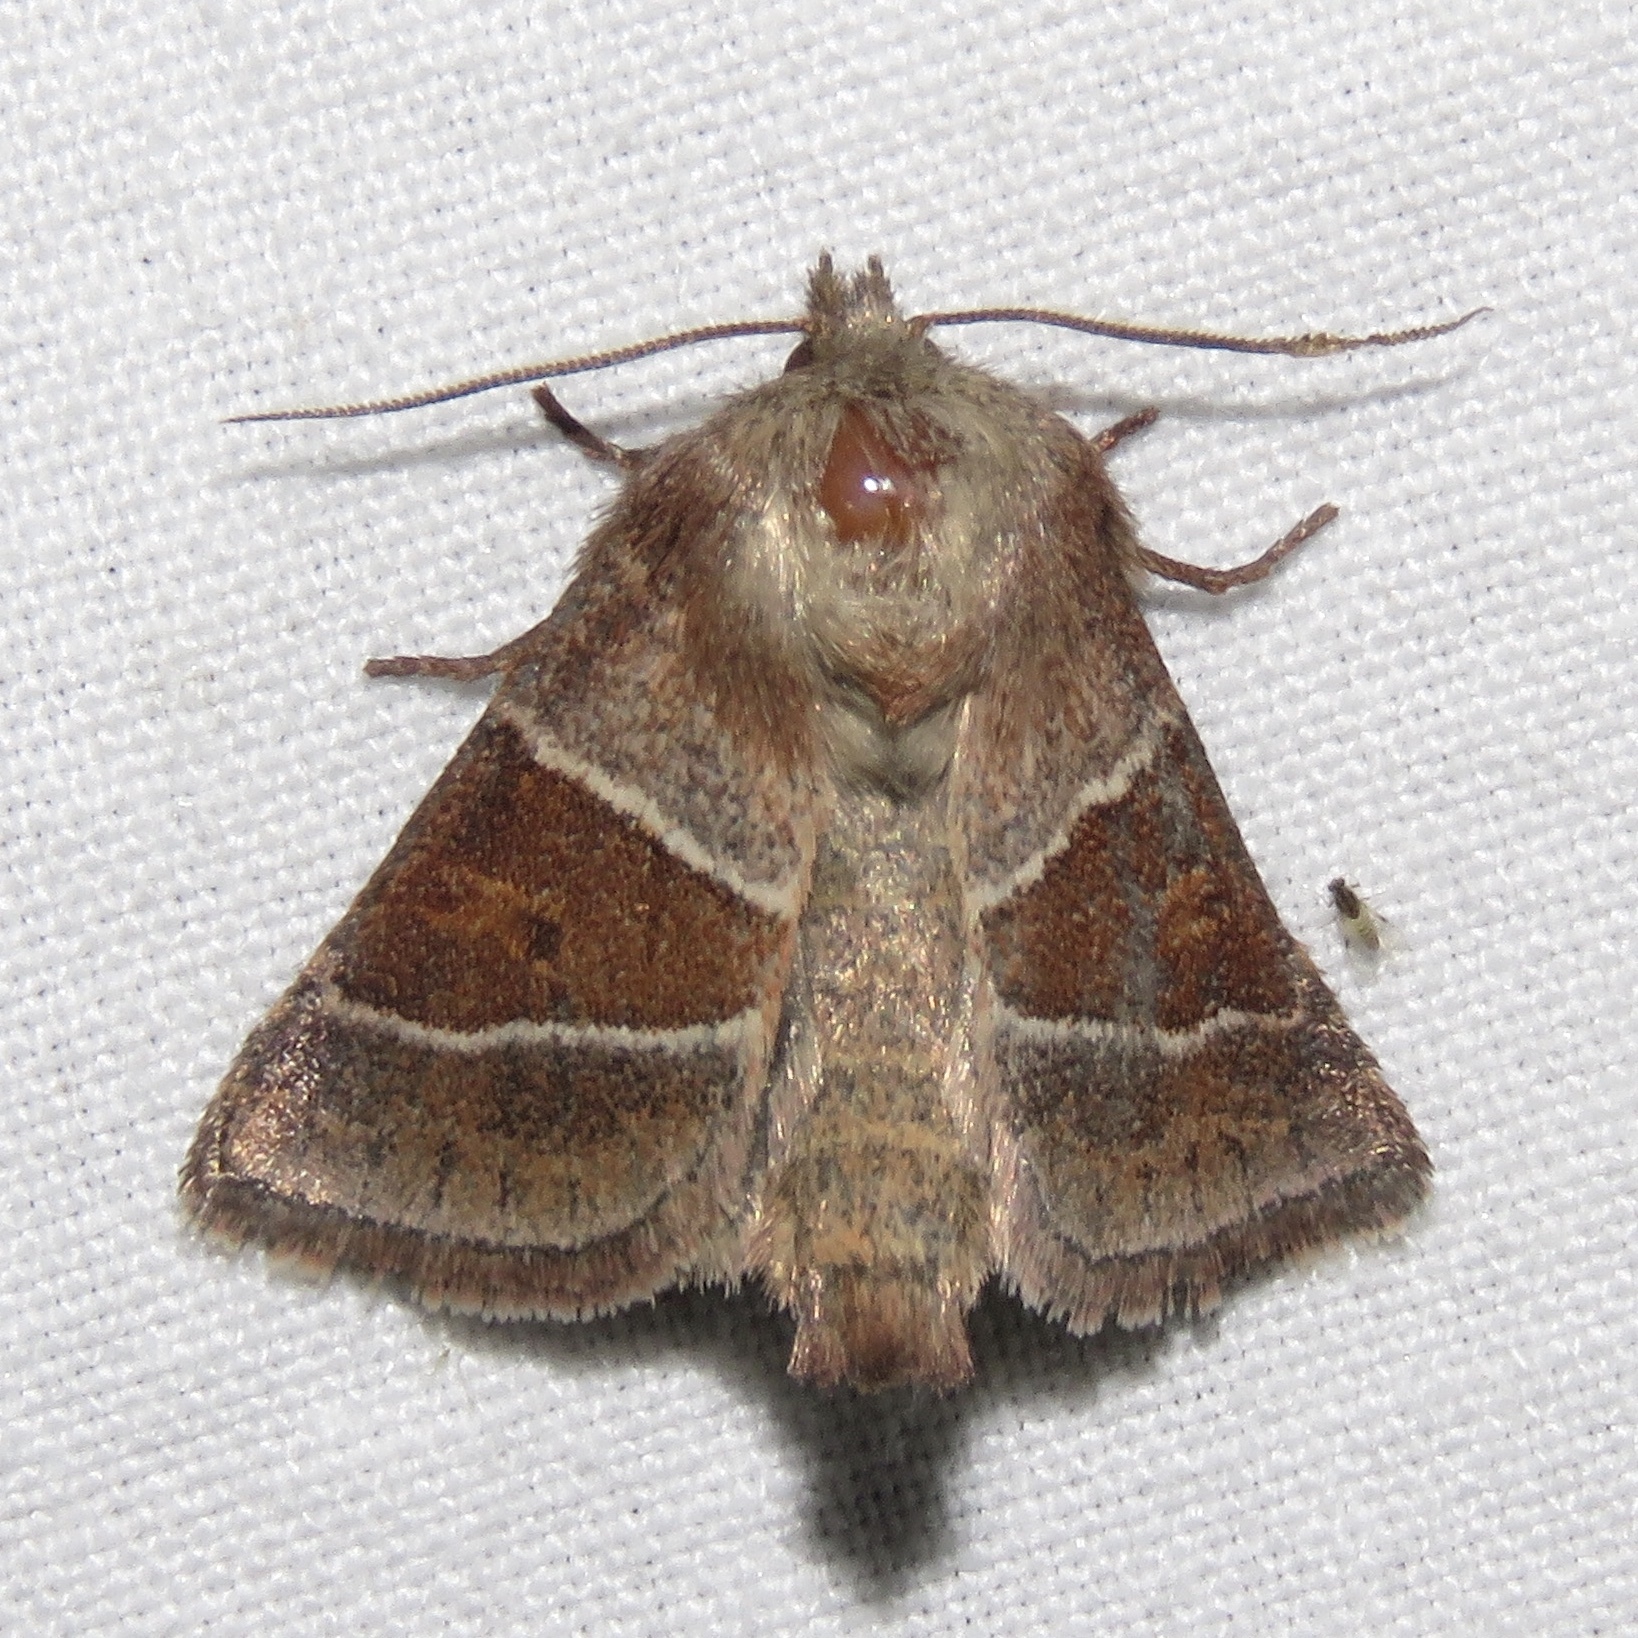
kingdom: Animalia
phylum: Arthropoda
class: Insecta
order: Lepidoptera
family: Noctuidae
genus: Lemmeria
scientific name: Lemmeria digitalis
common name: Fingered lemmeria moth
